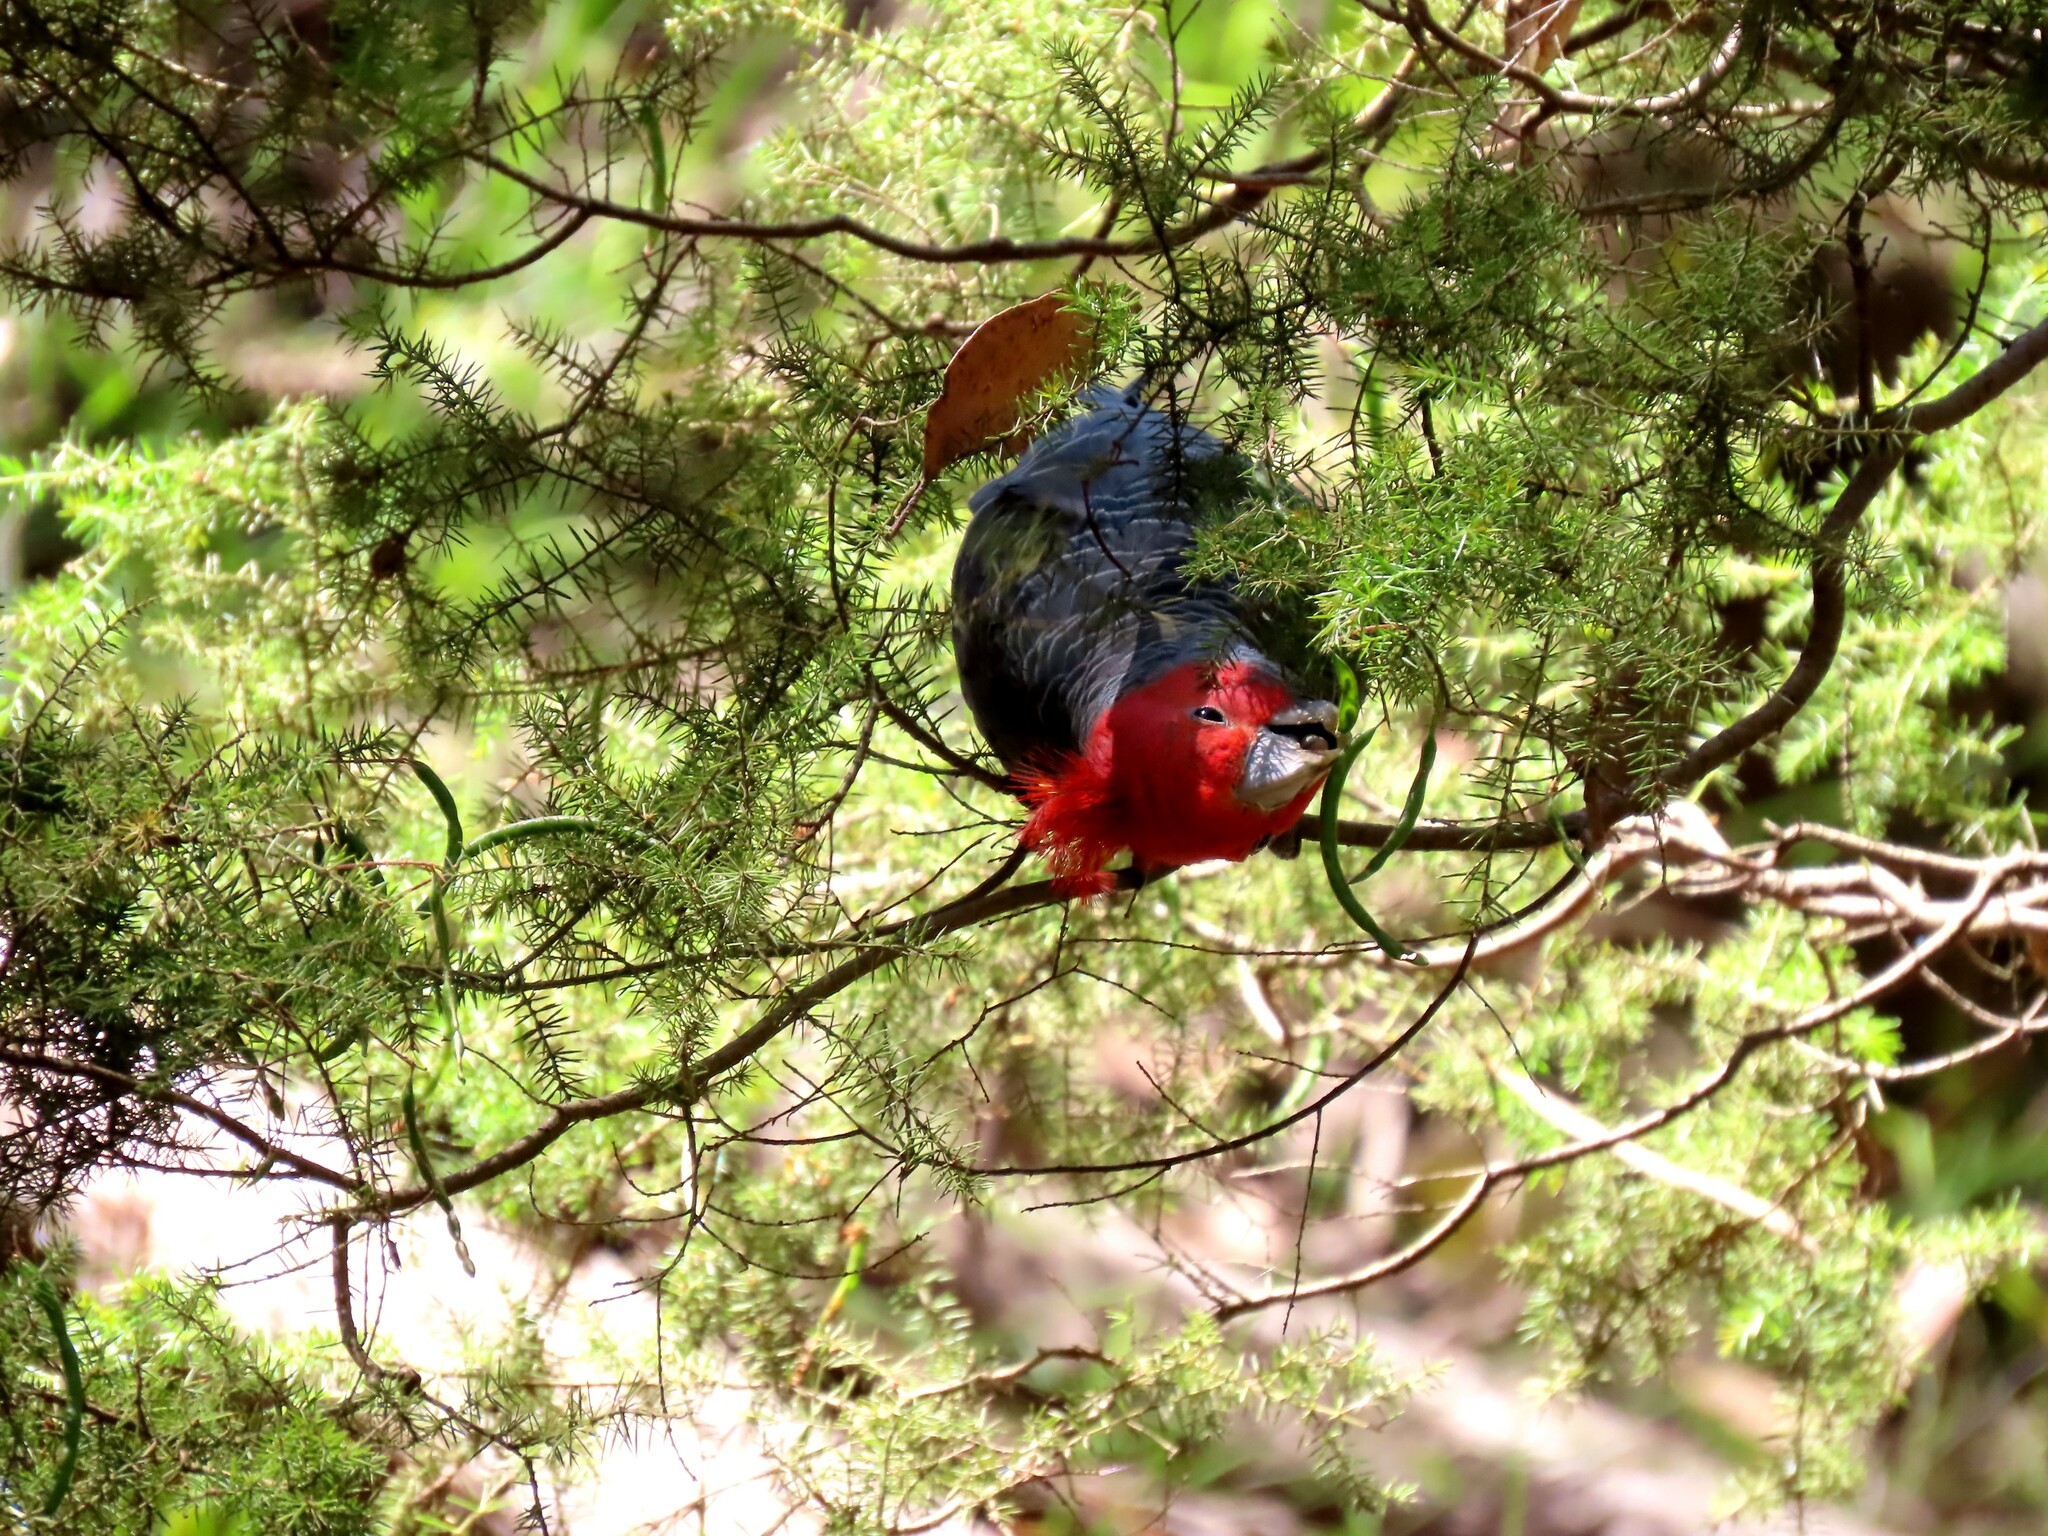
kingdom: Animalia
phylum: Chordata
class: Aves
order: Psittaciformes
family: Psittacidae
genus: Callocephalon
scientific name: Callocephalon fimbriatum
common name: Gang-gang cockatoo
